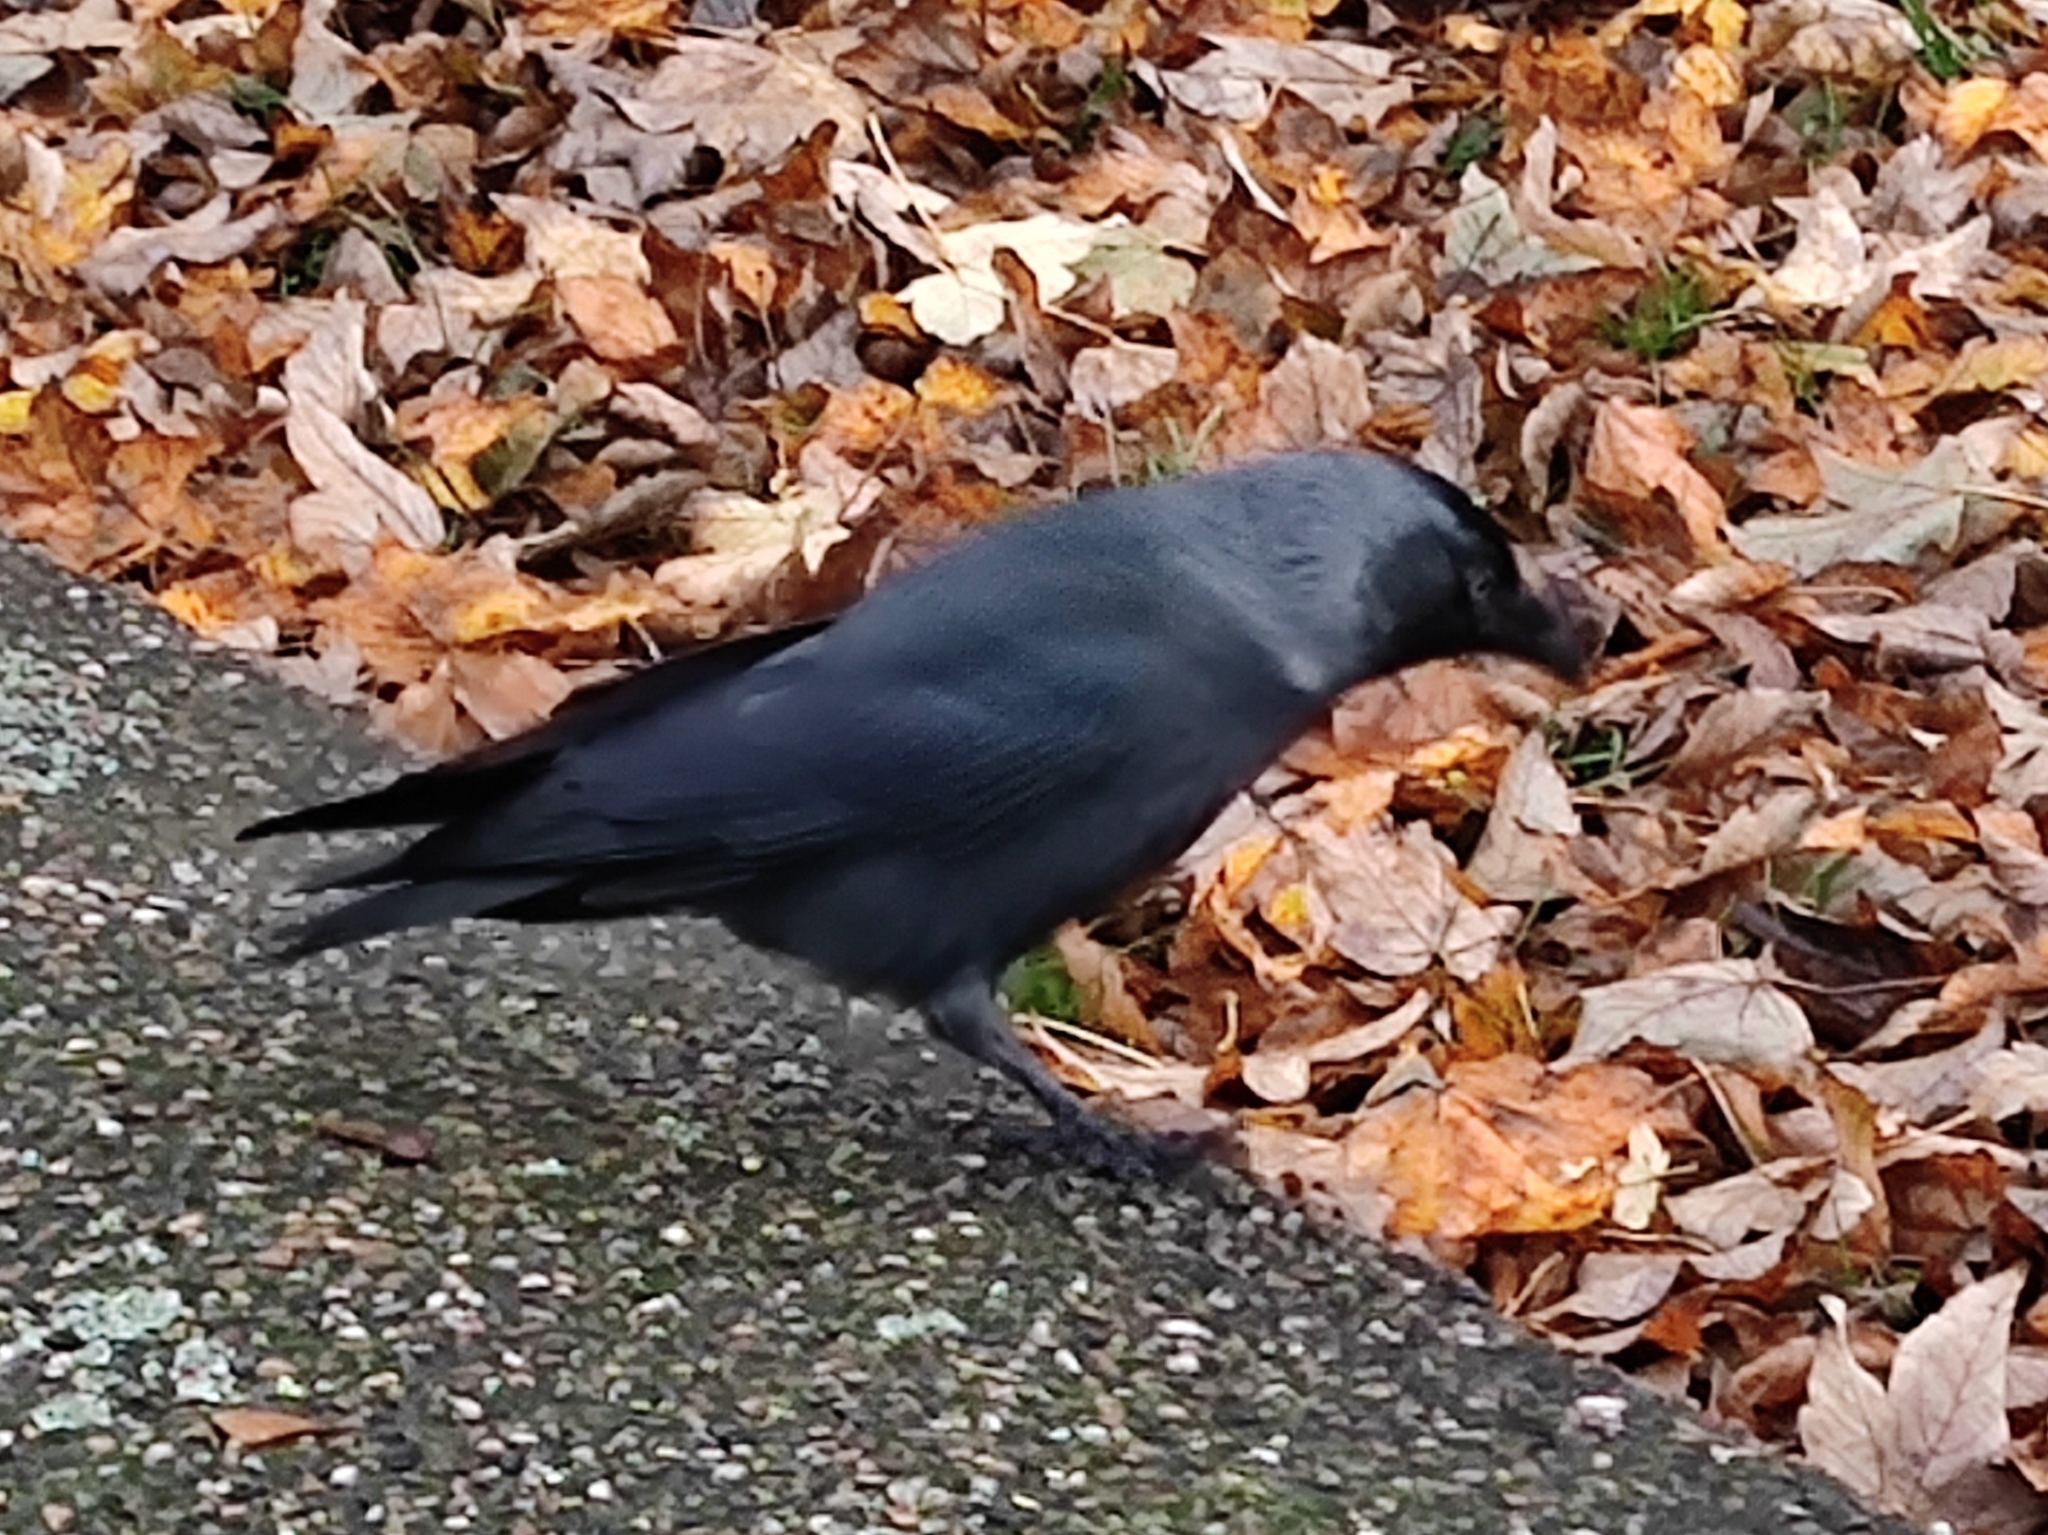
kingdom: Animalia
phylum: Chordata
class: Aves
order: Passeriformes
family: Corvidae
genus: Coloeus
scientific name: Coloeus monedula
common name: Western jackdaw
